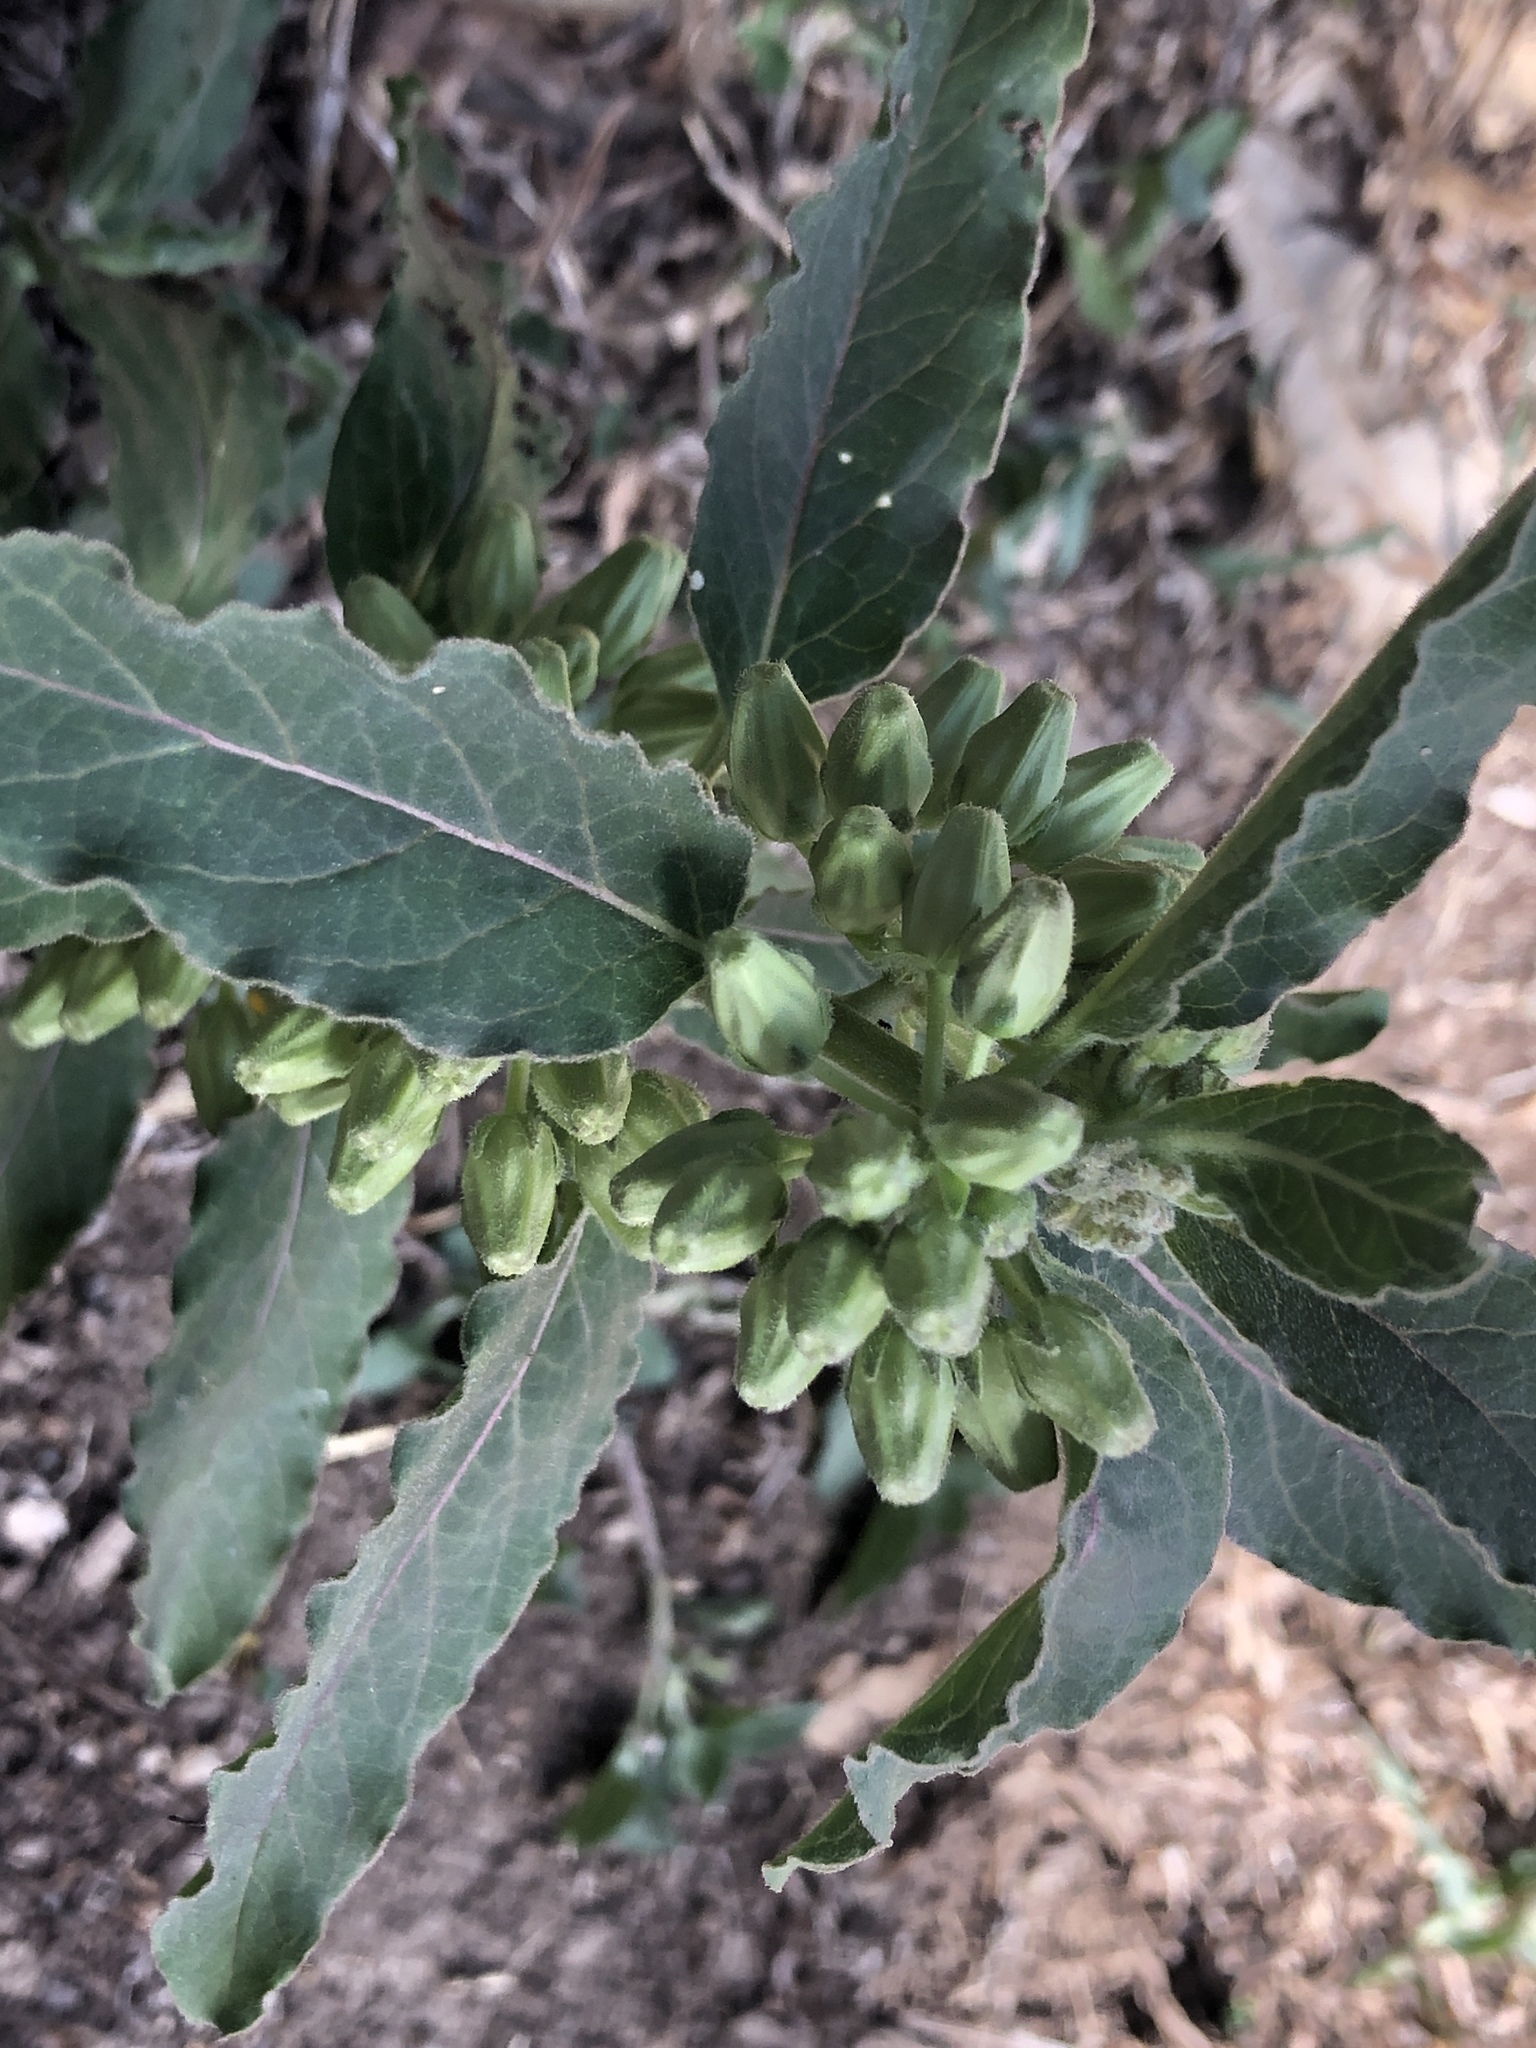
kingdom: Plantae
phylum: Tracheophyta
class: Magnoliopsida
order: Gentianales
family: Apocynaceae
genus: Asclepias
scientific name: Asclepias oenotheroides
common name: Zizotes milkweed
